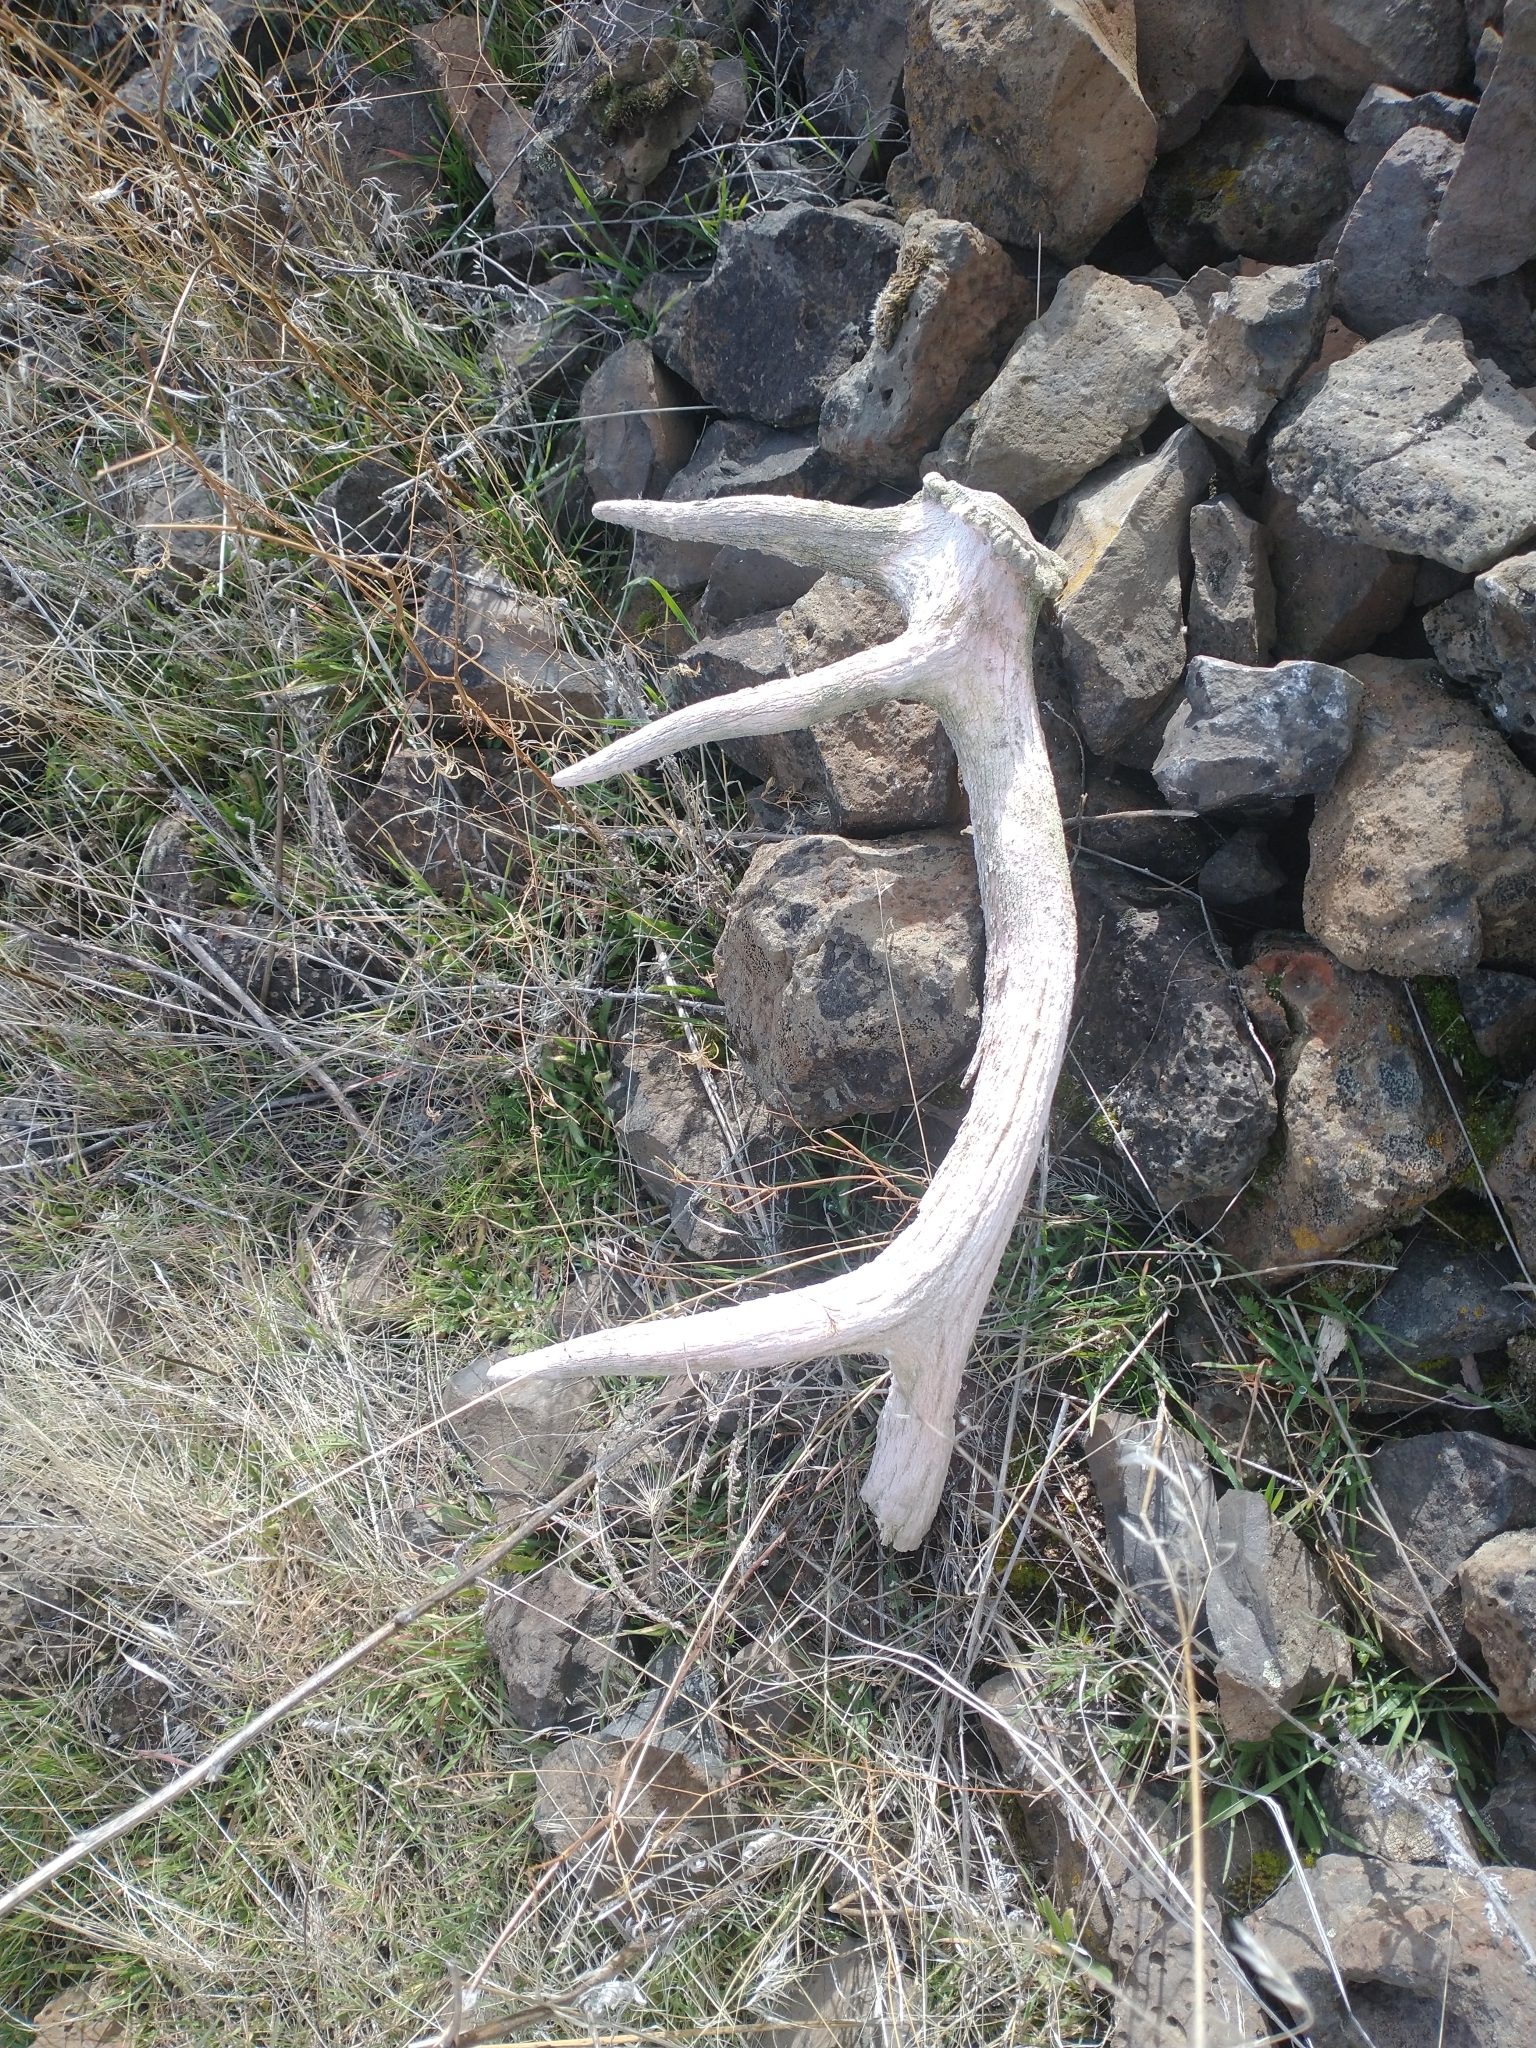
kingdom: Animalia
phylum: Chordata
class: Mammalia
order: Artiodactyla
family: Cervidae
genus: Cervus
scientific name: Cervus elaphus
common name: Red deer
